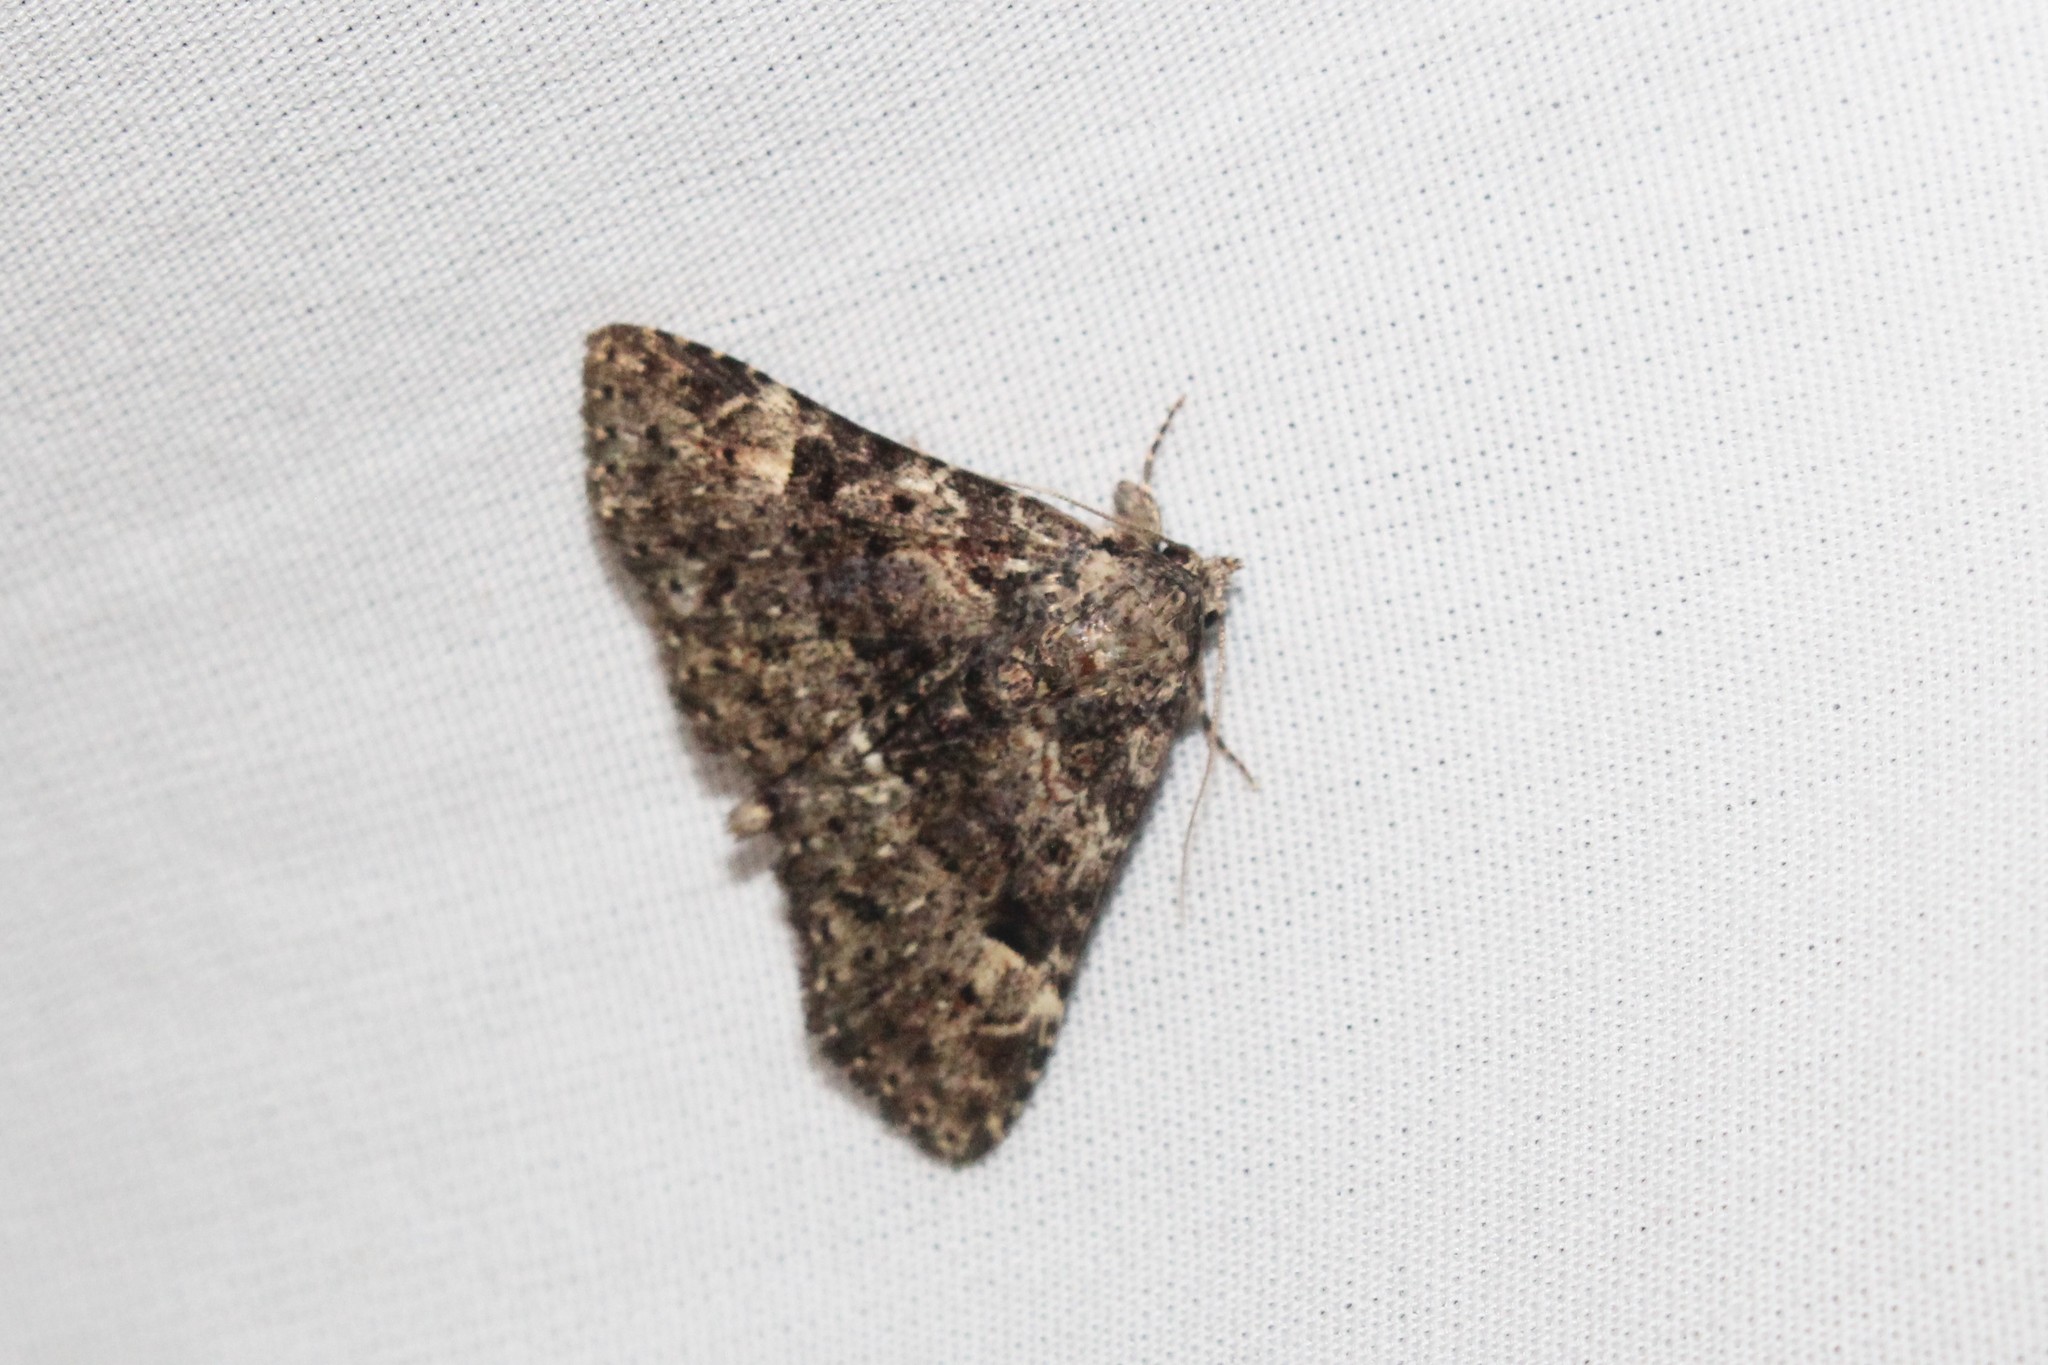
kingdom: Animalia
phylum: Arthropoda
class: Insecta
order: Lepidoptera
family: Erebidae
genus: Metalectra
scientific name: Metalectra discalis
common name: Common fungus moth
